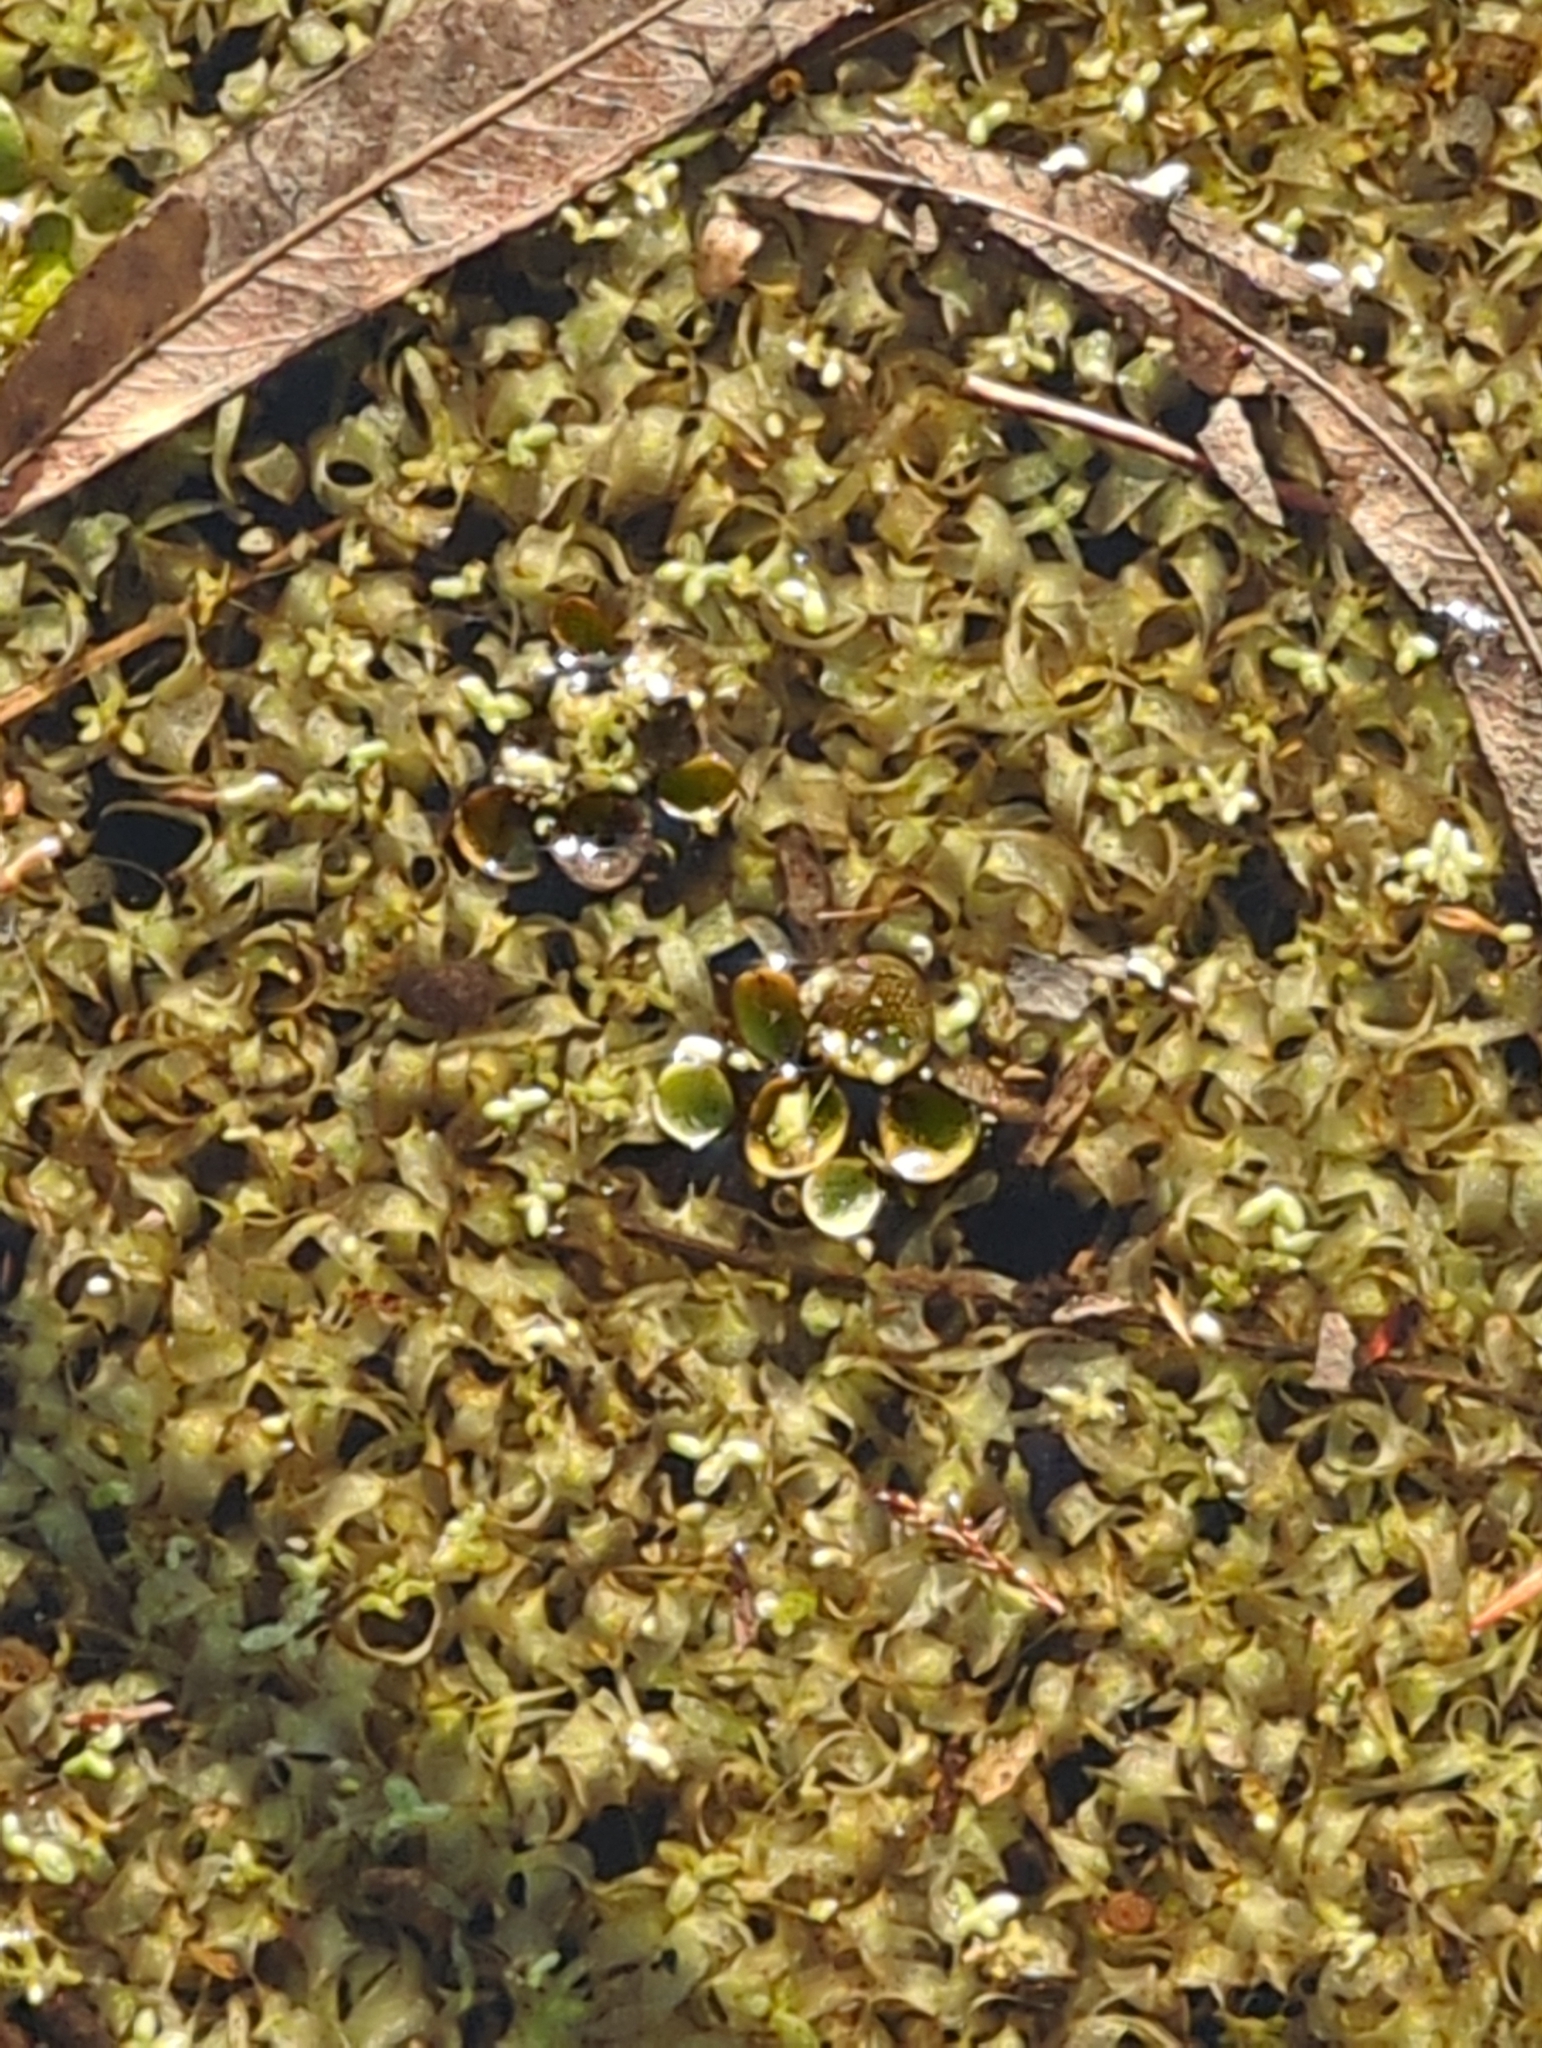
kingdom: Plantae
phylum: Tracheophyta
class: Polypodiopsida
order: Salviniales
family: Salviniaceae
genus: Salvinia
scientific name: Salvinia molesta
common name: Kariba weed
